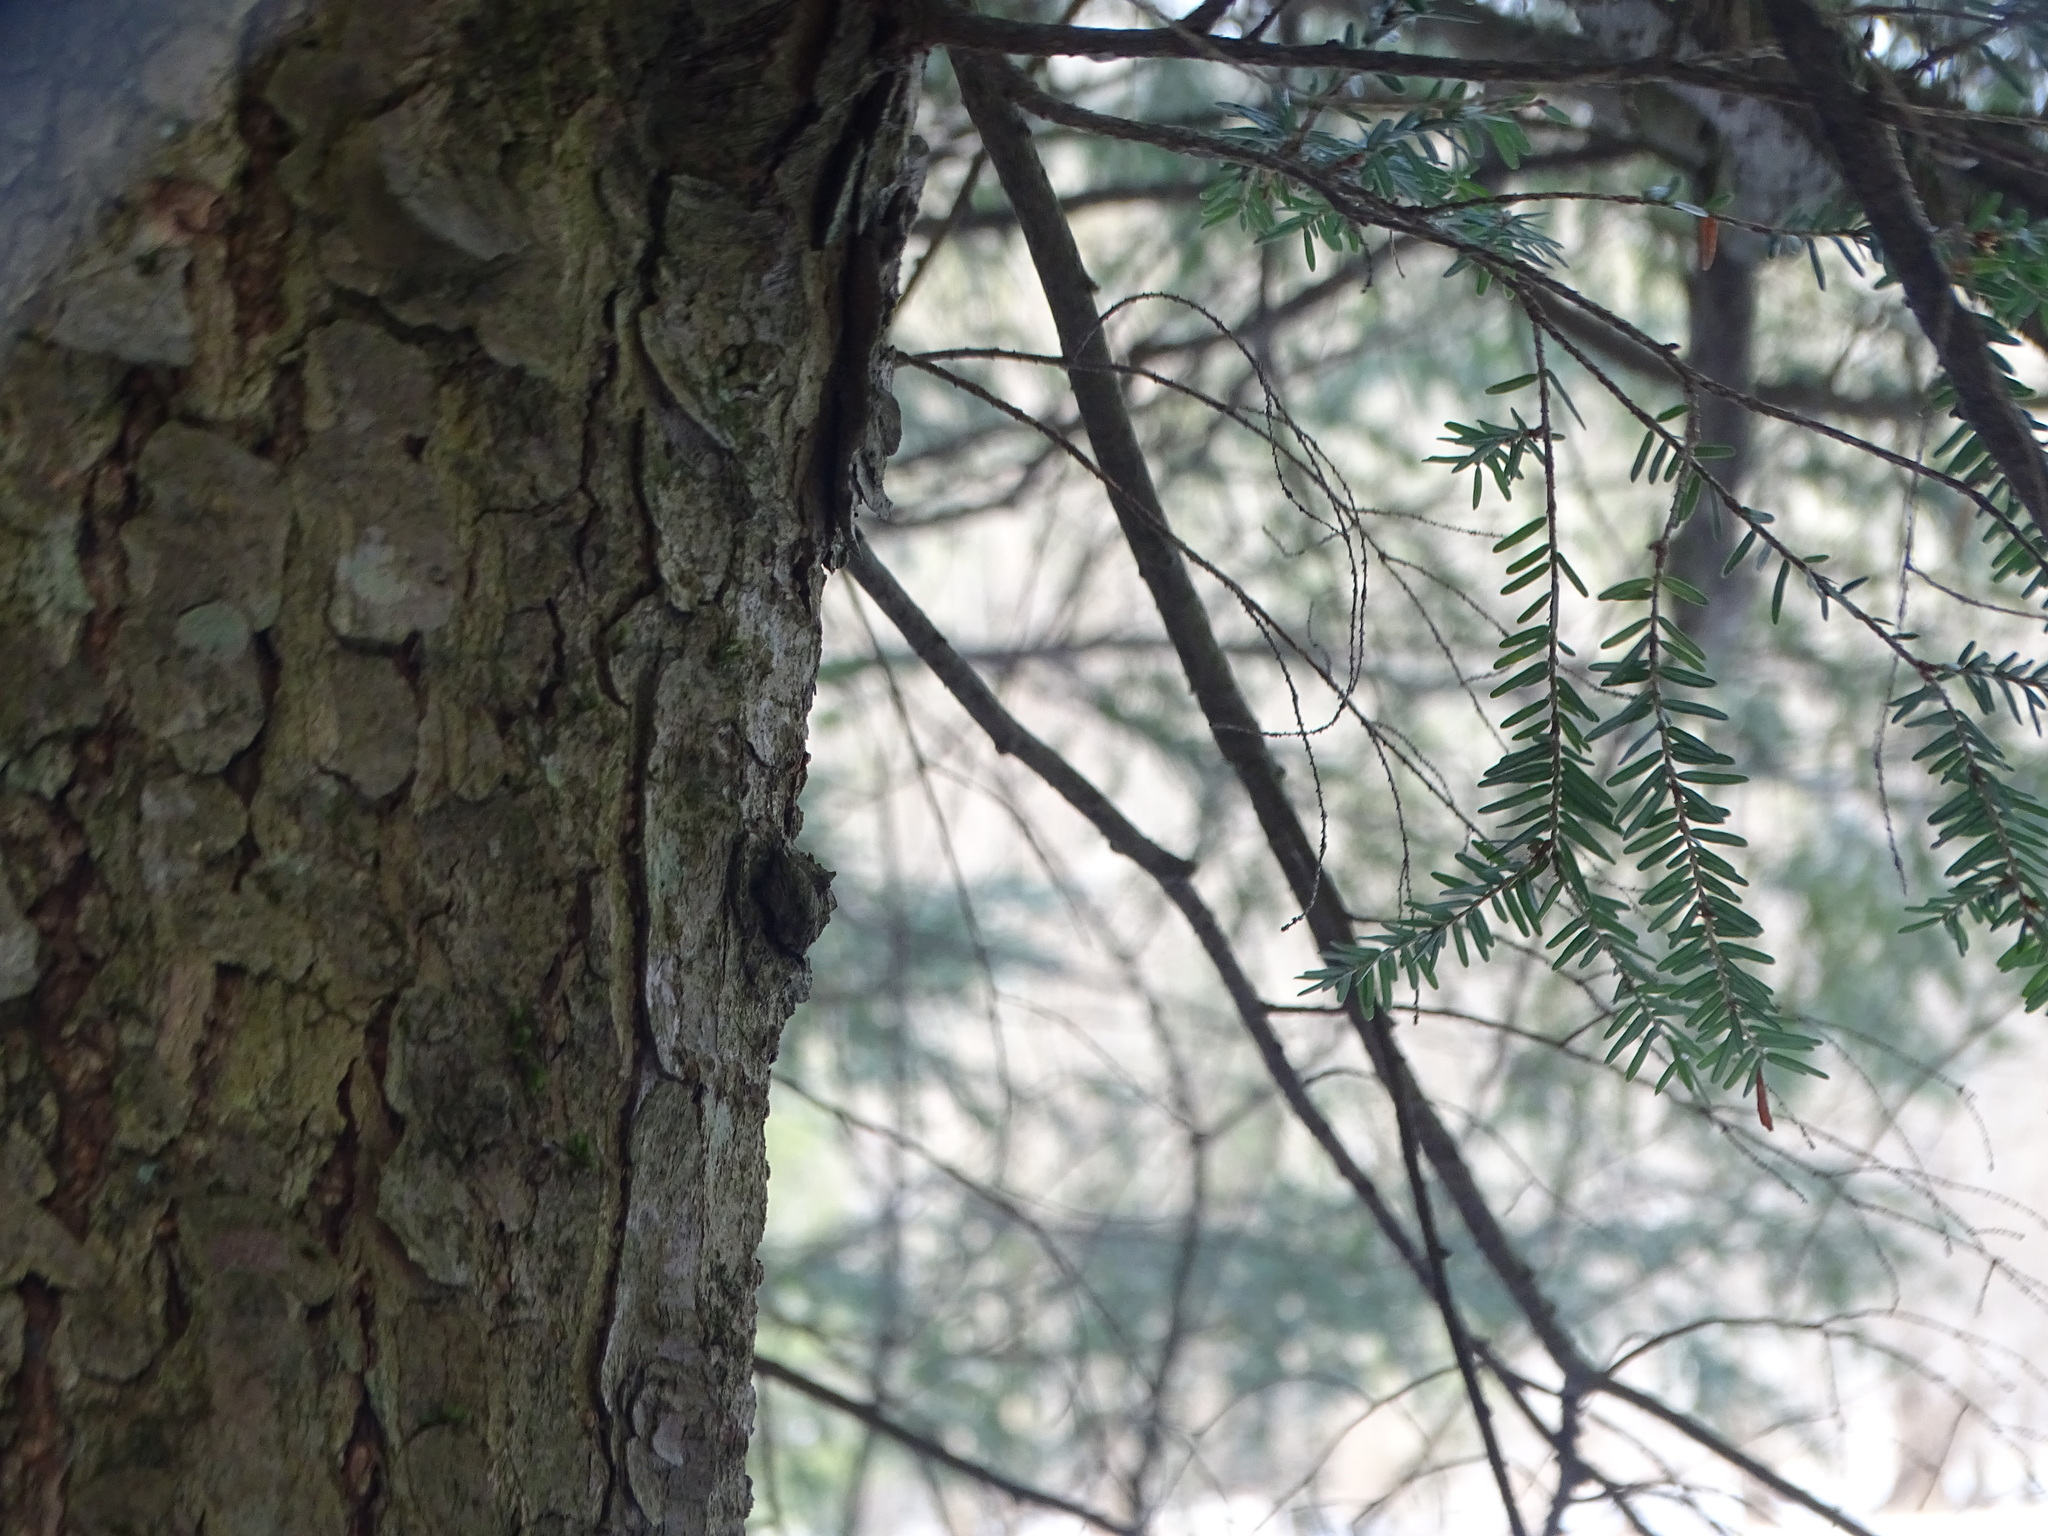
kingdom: Plantae
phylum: Tracheophyta
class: Pinopsida
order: Pinales
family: Pinaceae
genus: Tsuga
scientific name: Tsuga canadensis
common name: Eastern hemlock
